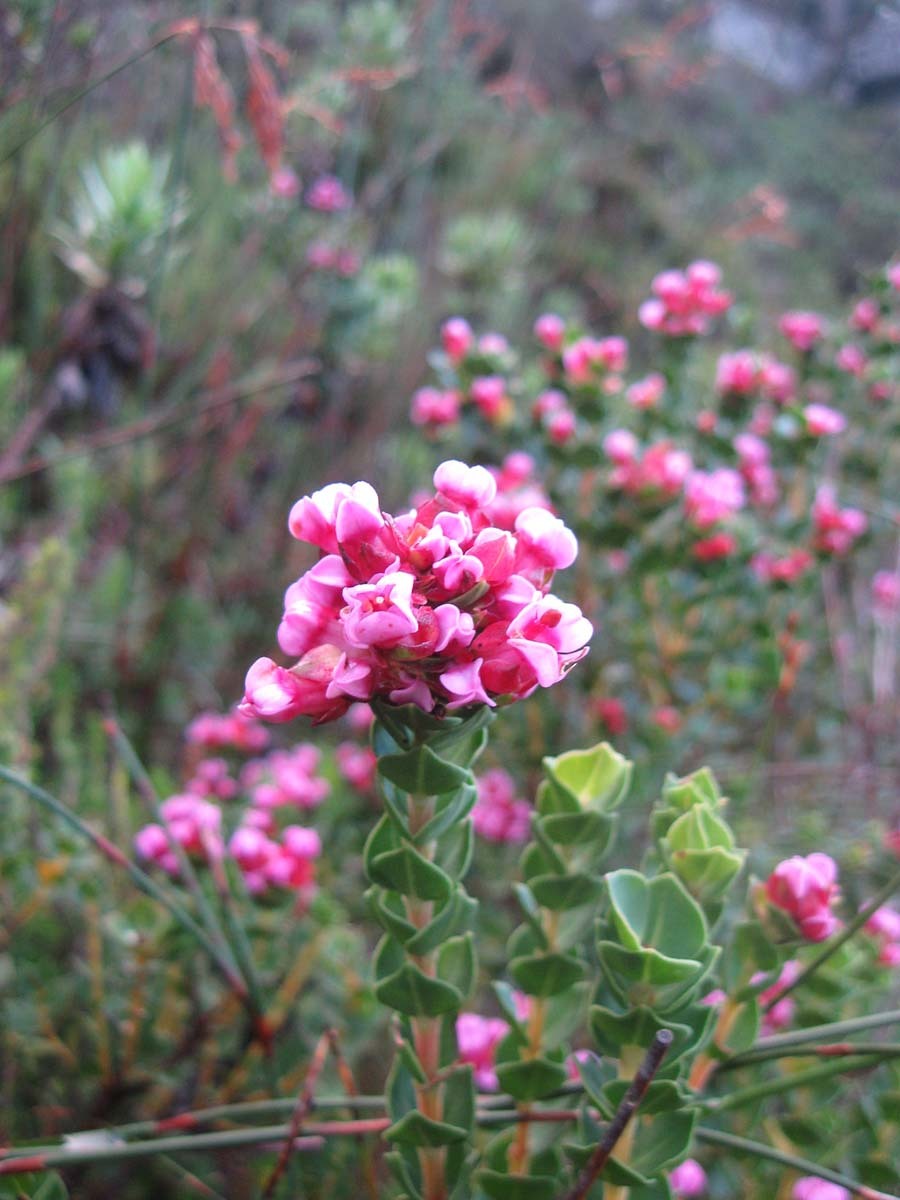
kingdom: Plantae
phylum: Tracheophyta
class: Magnoliopsida
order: Myrtales
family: Penaeaceae
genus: Brachysiphon
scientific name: Brachysiphon fucatus
